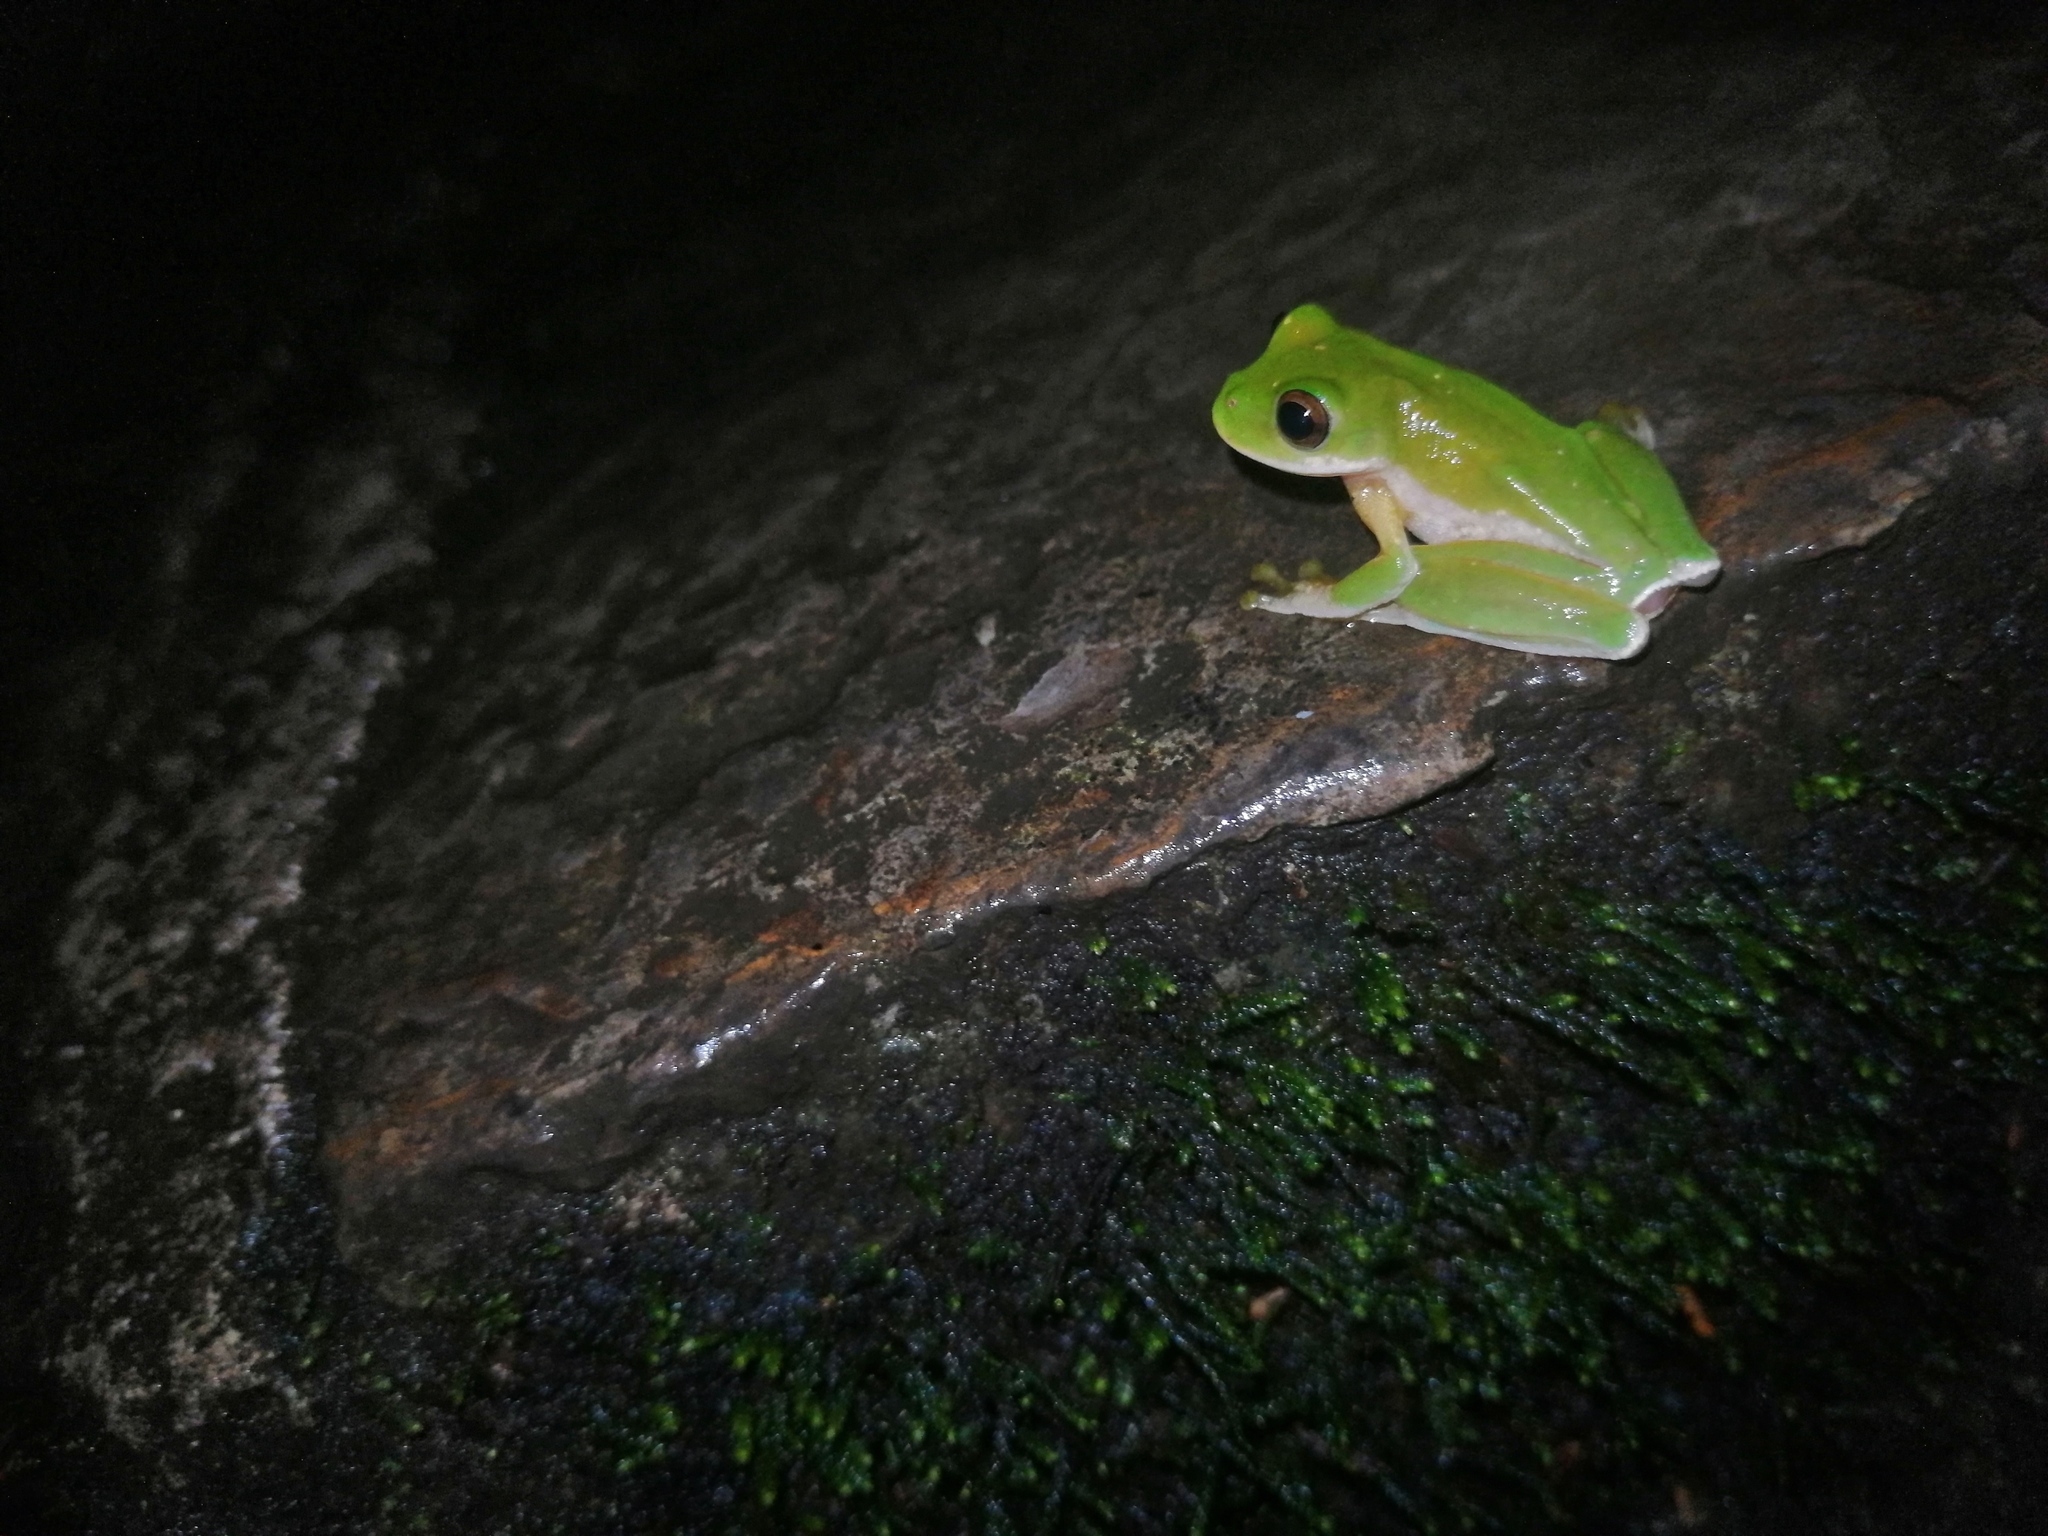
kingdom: Animalia
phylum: Chordata
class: Amphibia
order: Anura
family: Hylidae
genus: Rheohyla
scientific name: Rheohyla miotympanum
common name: Small-eard hyla
